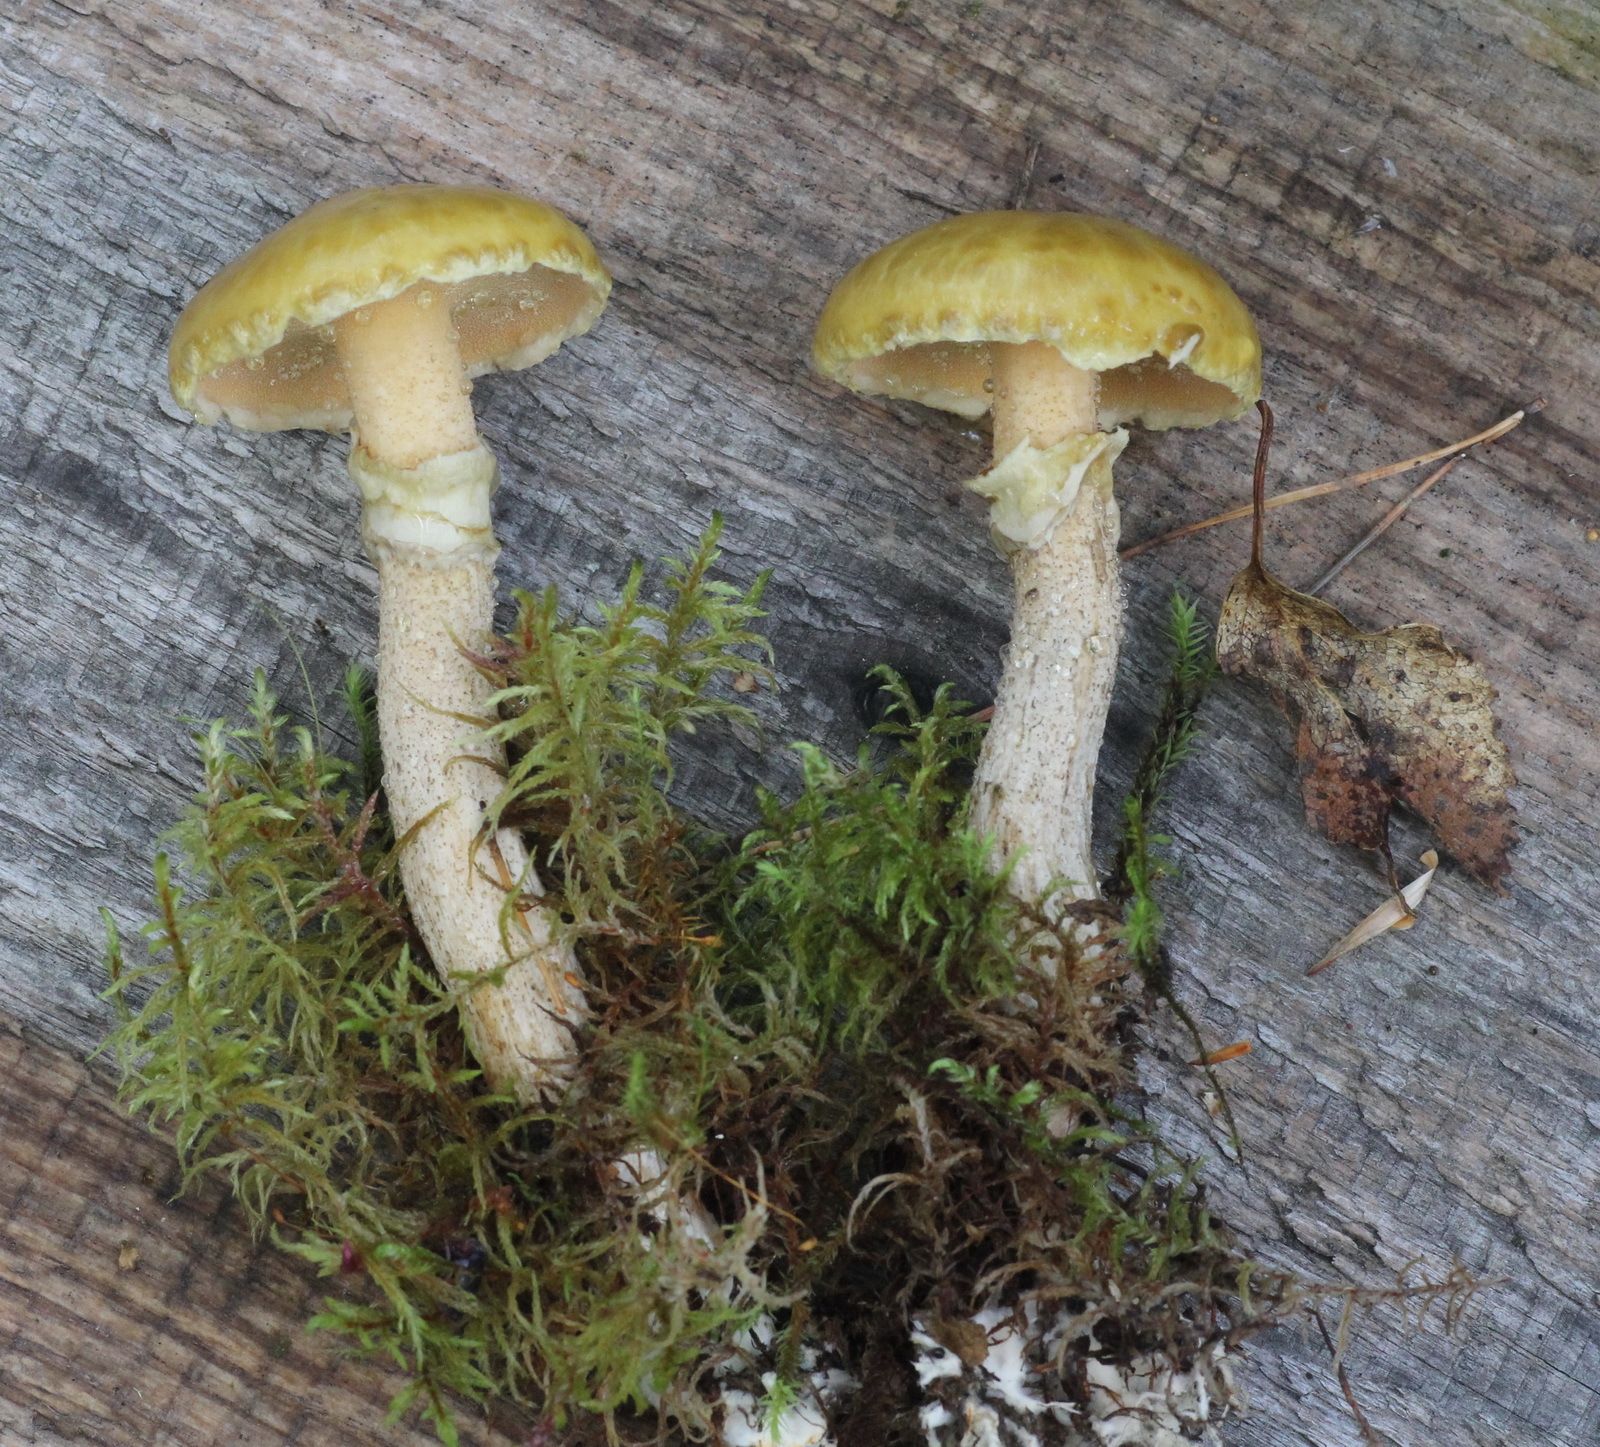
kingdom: Fungi
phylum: Basidiomycota
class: Agaricomycetes
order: Boletales
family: Suillaceae
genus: Suillus
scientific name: Suillus acidus
